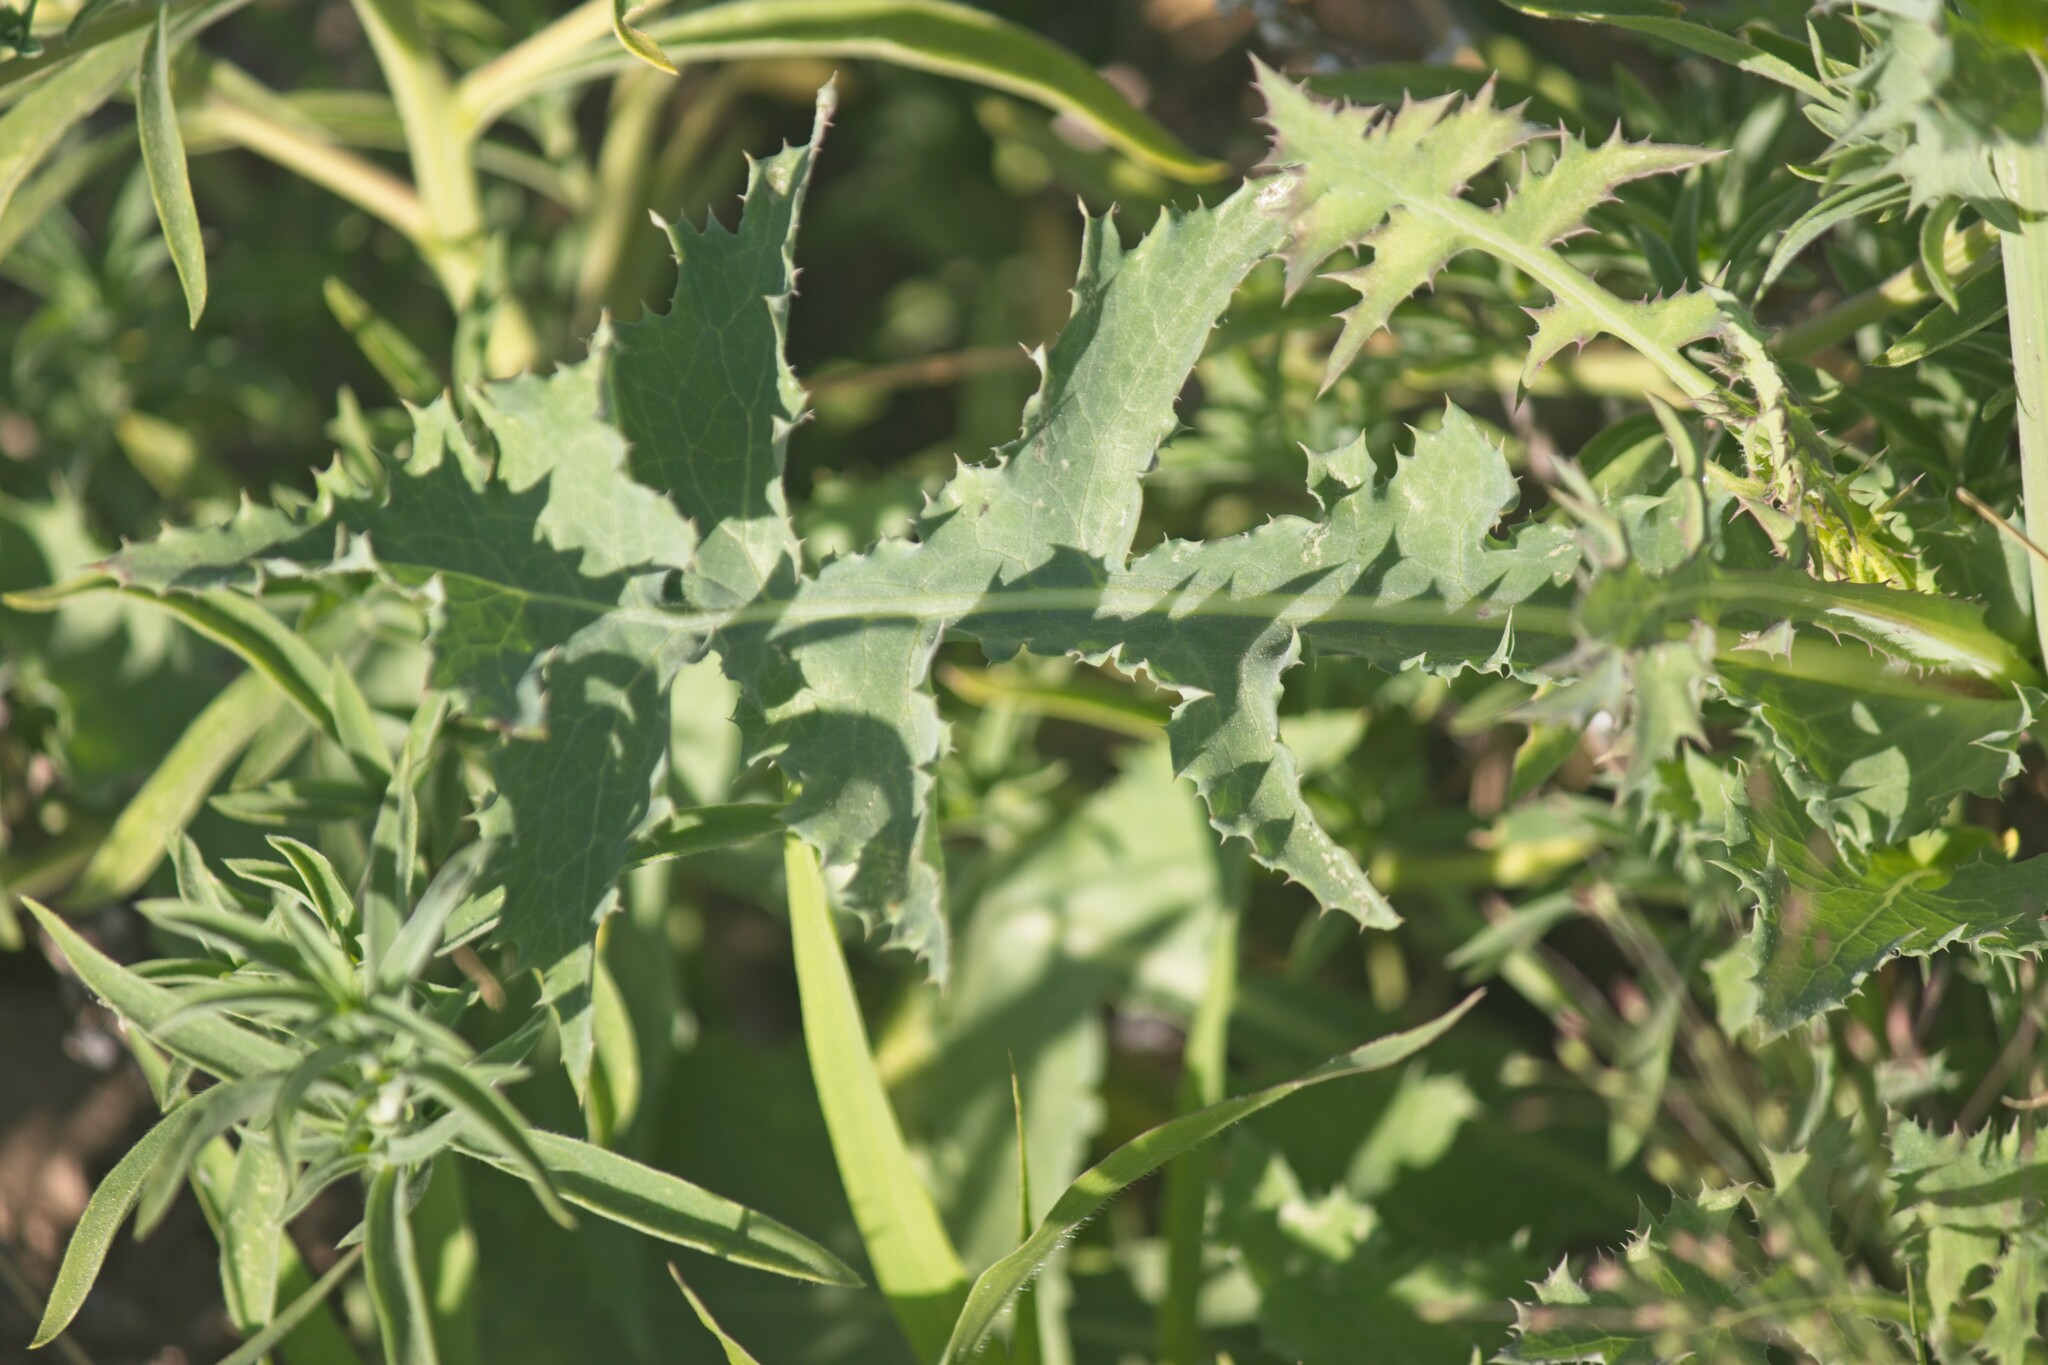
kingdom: Plantae
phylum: Tracheophyta
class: Magnoliopsida
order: Asterales
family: Asteraceae
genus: Sonchus
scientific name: Sonchus asper
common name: Prickly sow-thistle
